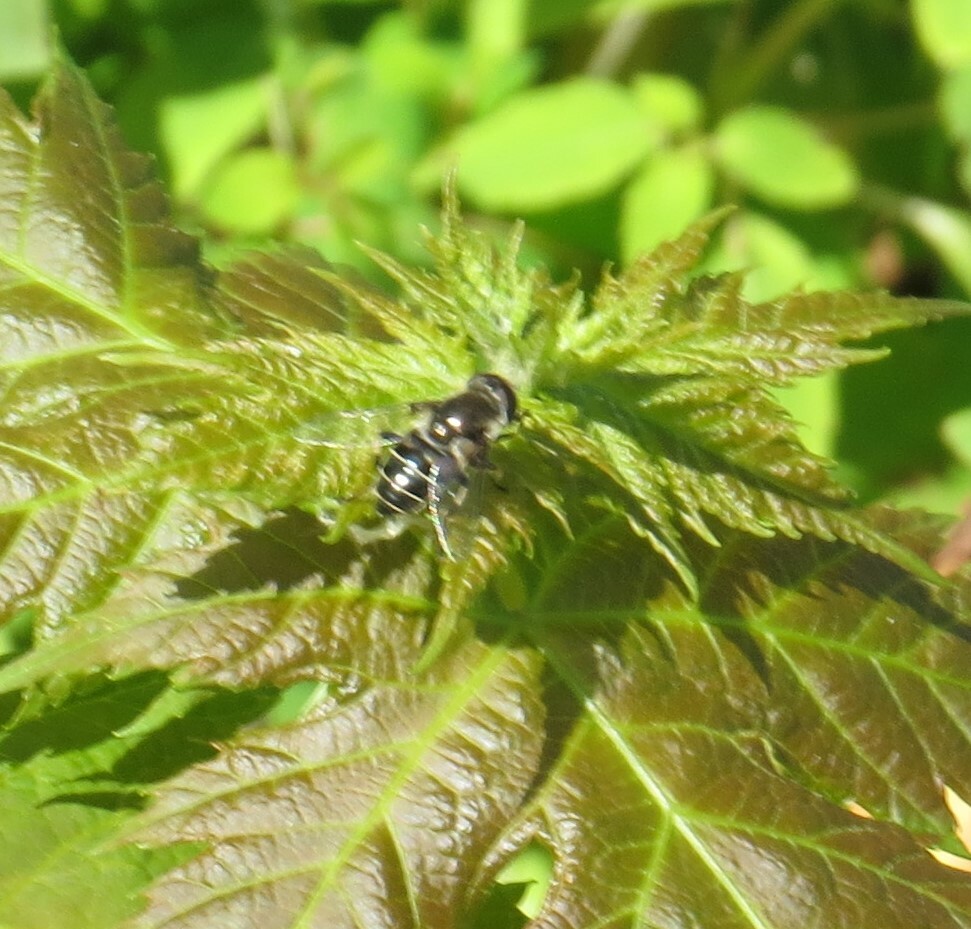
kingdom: Animalia
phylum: Arthropoda
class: Insecta
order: Diptera
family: Syrphidae
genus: Eristalis
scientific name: Eristalis dimidiata
